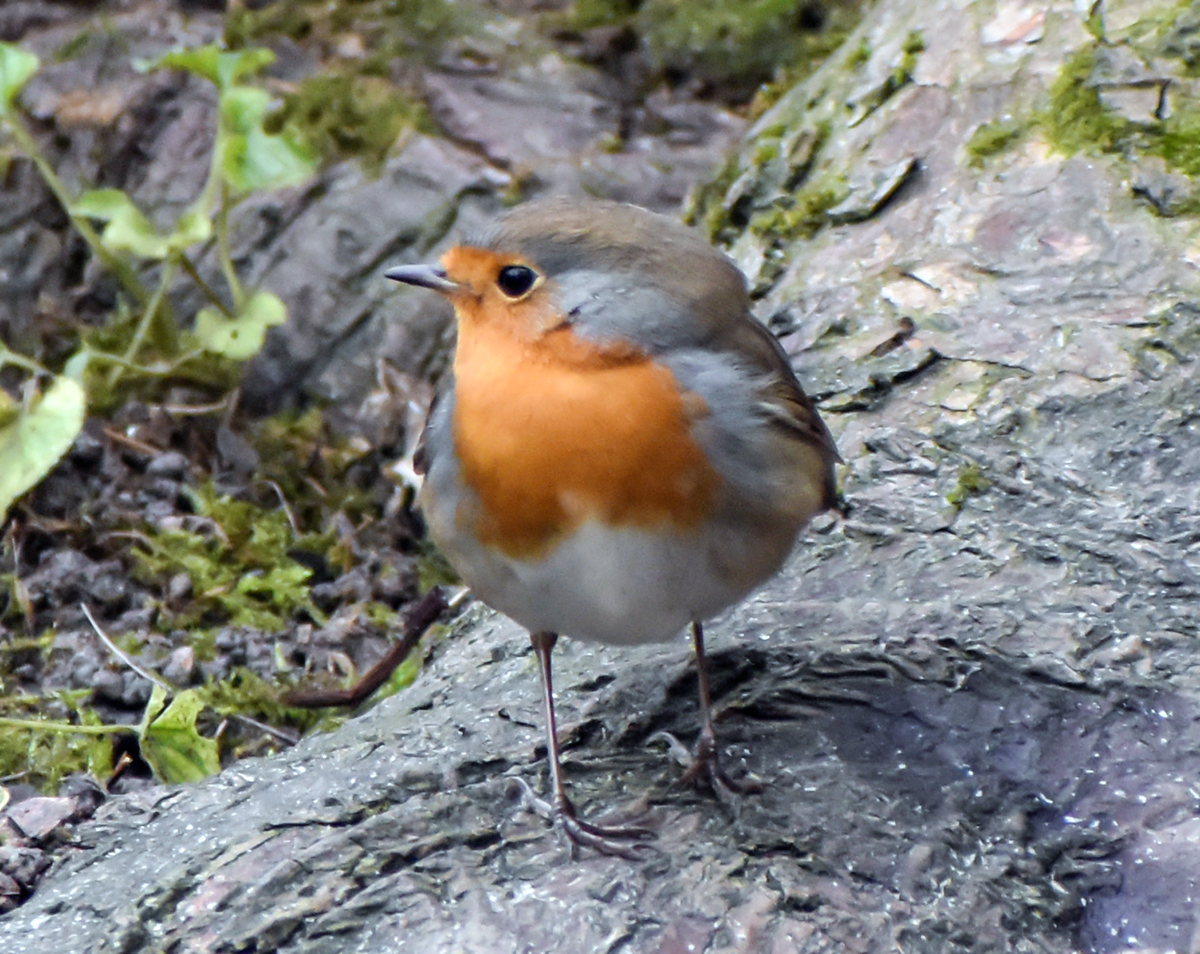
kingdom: Animalia
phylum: Chordata
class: Aves
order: Passeriformes
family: Muscicapidae
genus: Erithacus
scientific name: Erithacus rubecula
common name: European robin
